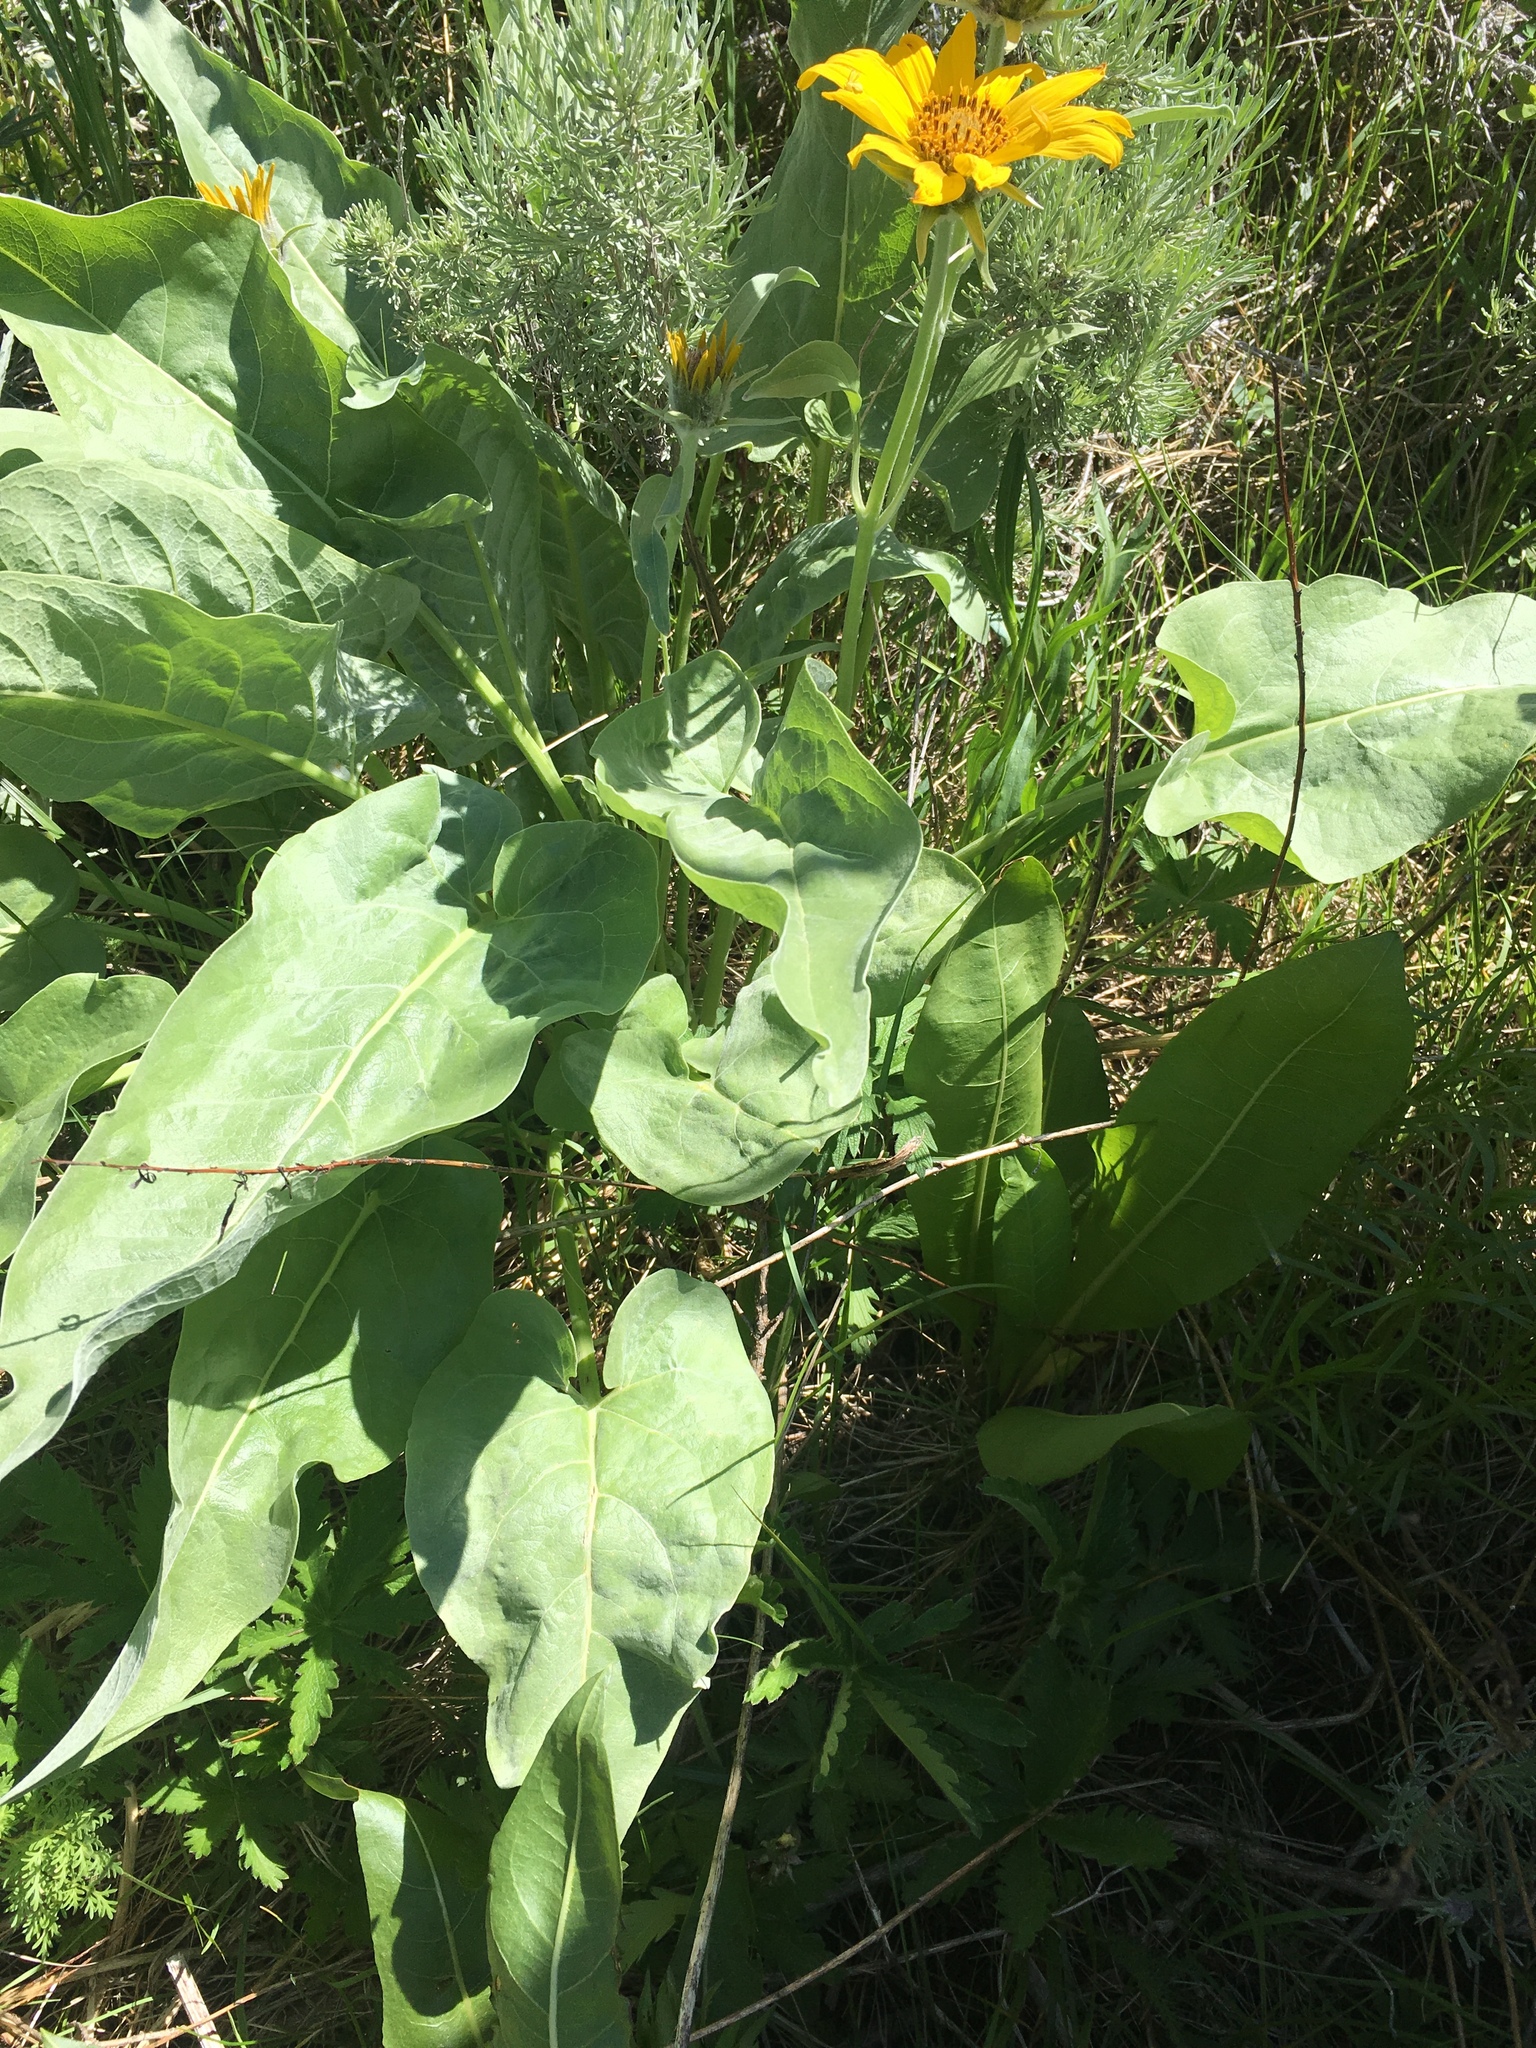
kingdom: Plantae
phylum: Tracheophyta
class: Magnoliopsida
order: Asterales
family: Asteraceae
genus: Wyethia
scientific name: Wyethia sagittata
